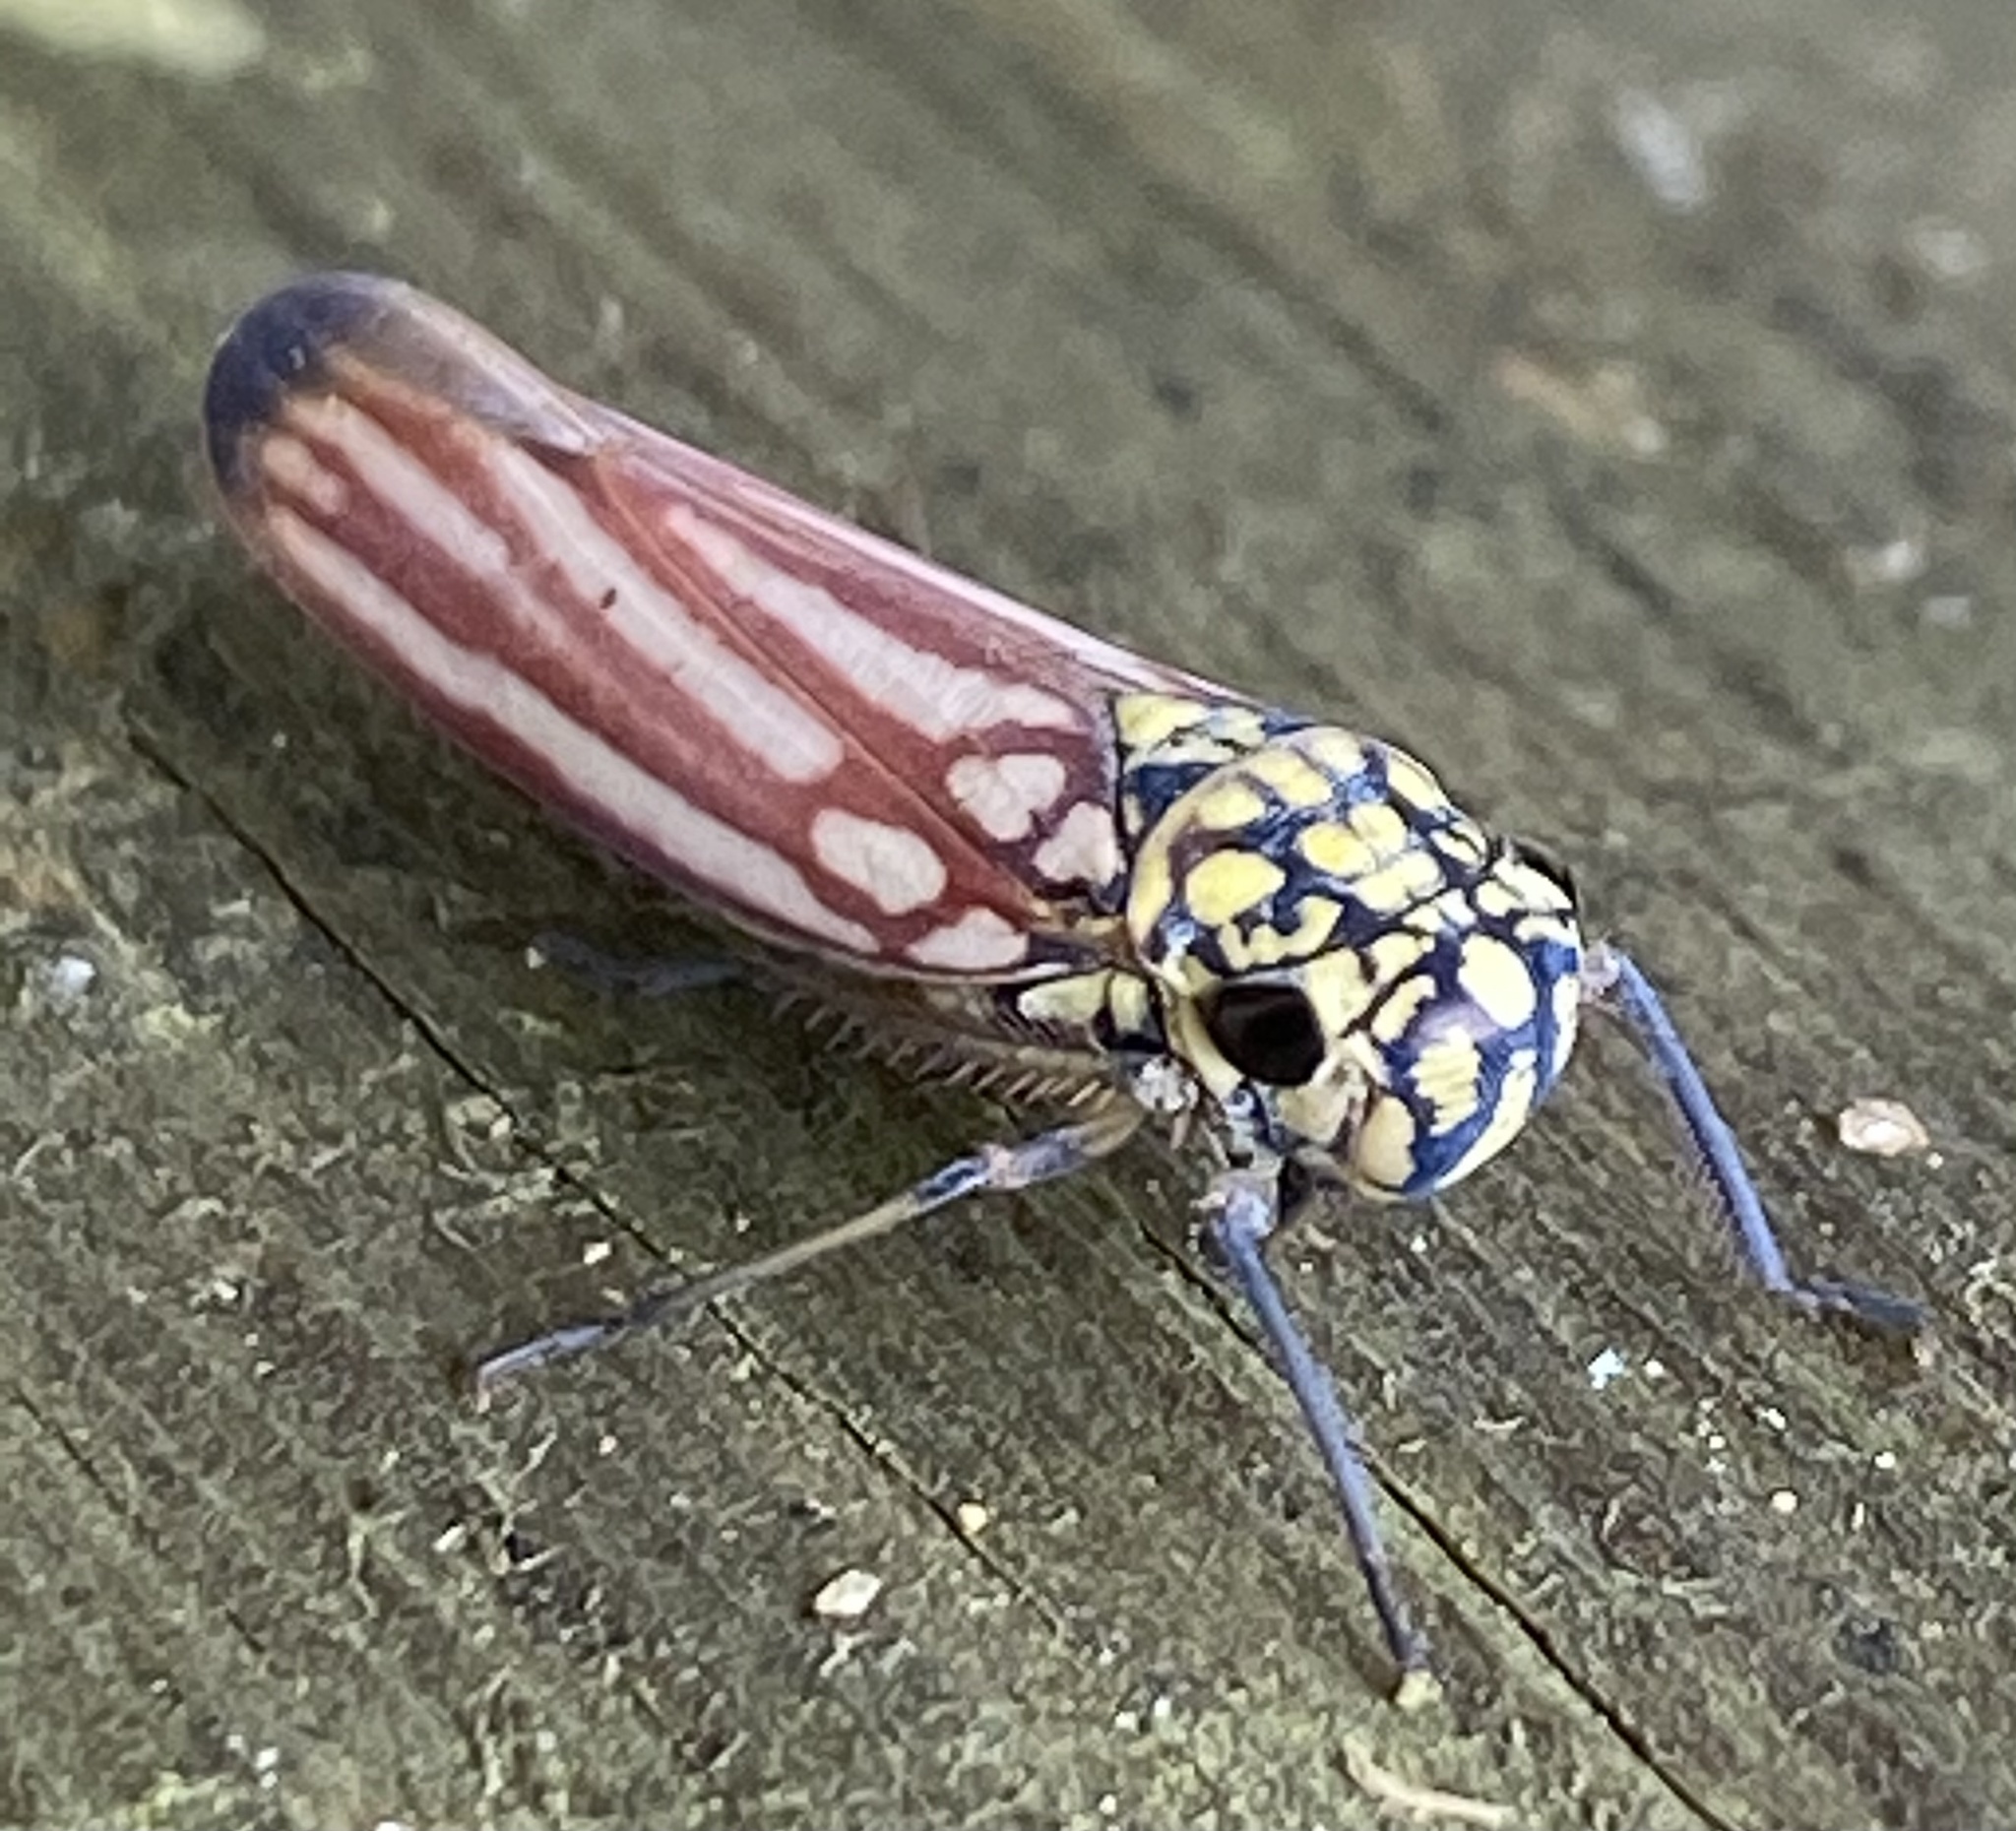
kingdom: Animalia
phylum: Arthropoda
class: Insecta
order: Hemiptera
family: Cicadellidae
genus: Macugonalia
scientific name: Macugonalia spinolae
